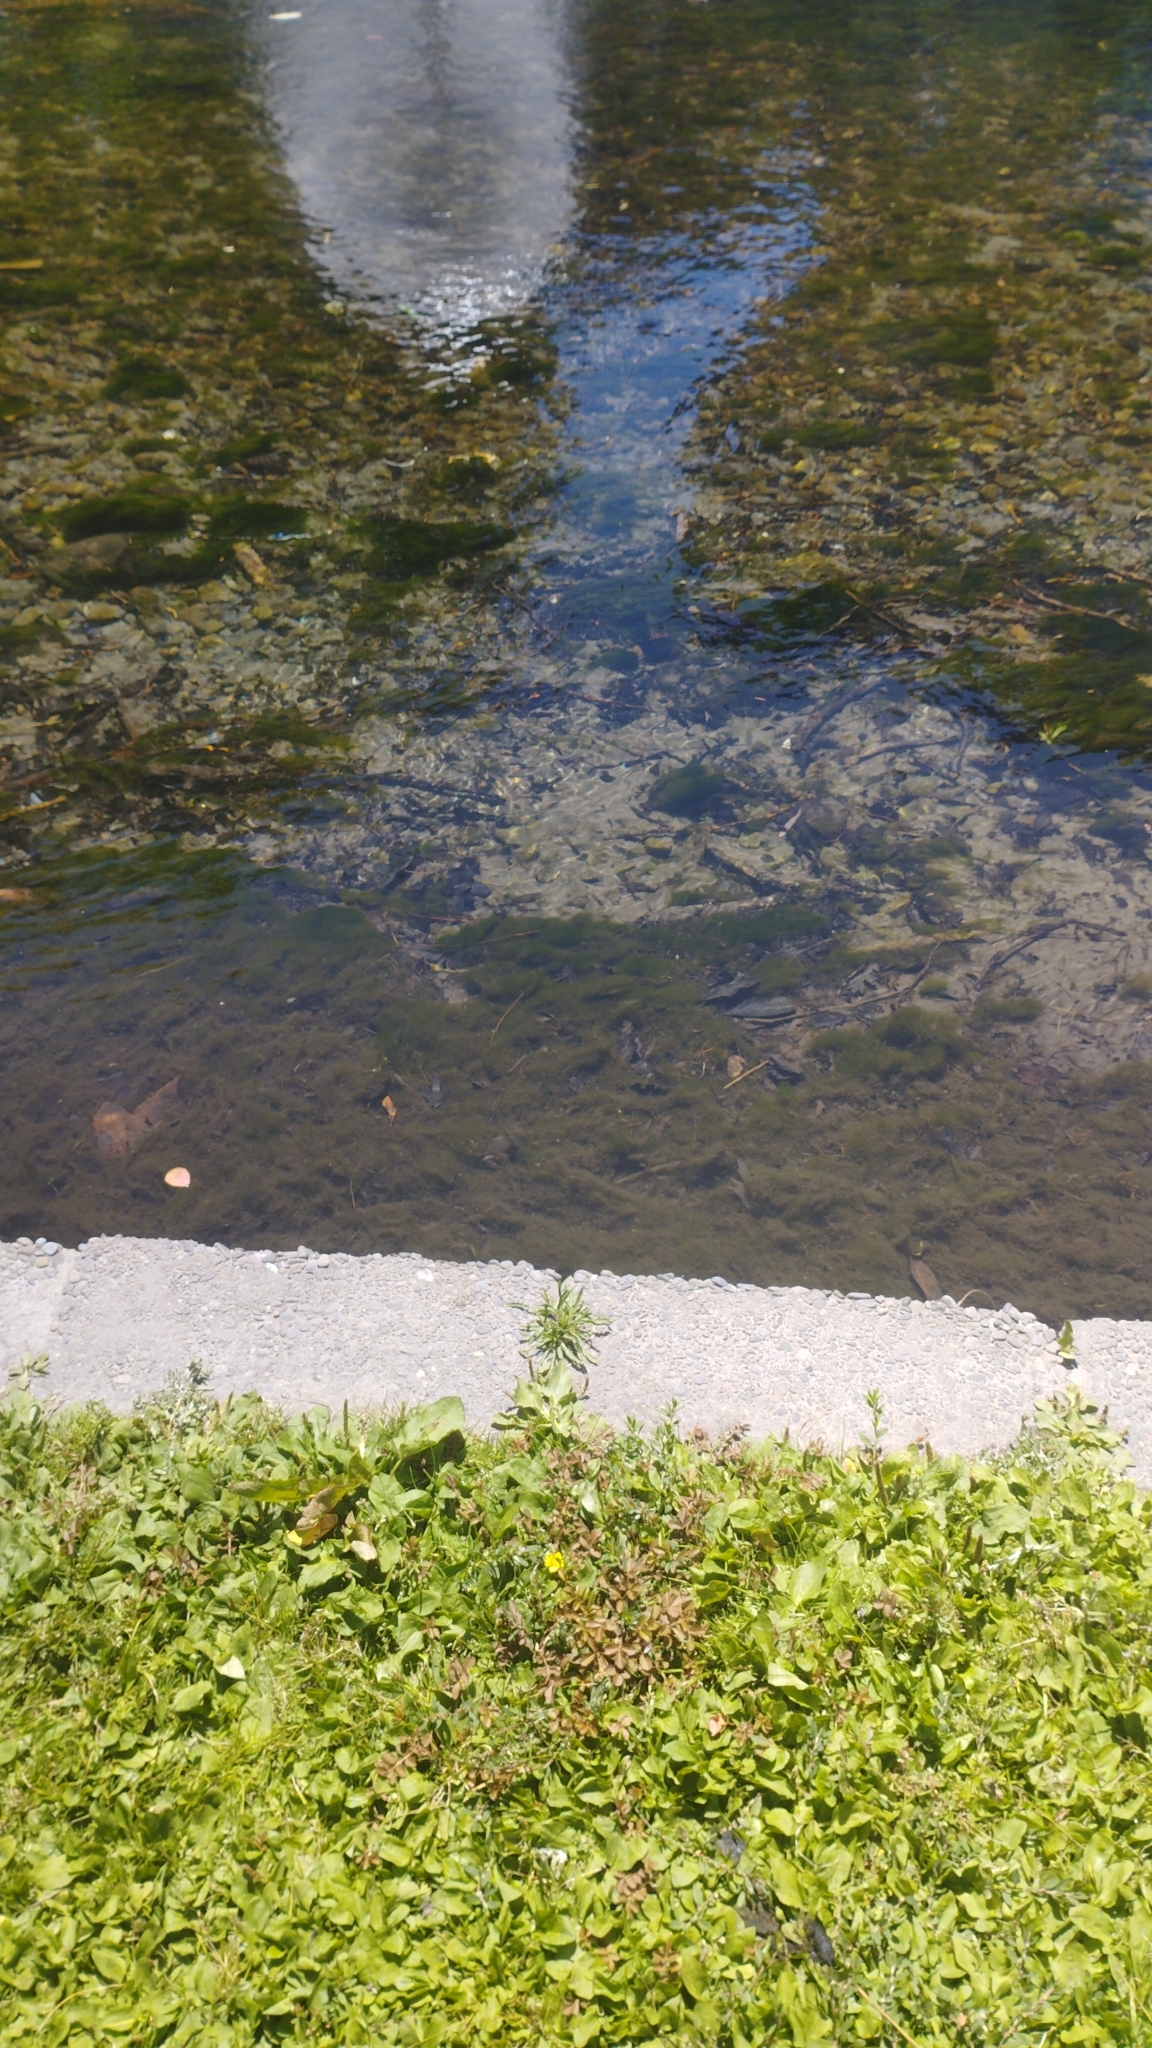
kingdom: Plantae
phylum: Tracheophyta
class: Magnoliopsida
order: Rosales
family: Rosaceae
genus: Argentina
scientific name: Argentina anserinoides
